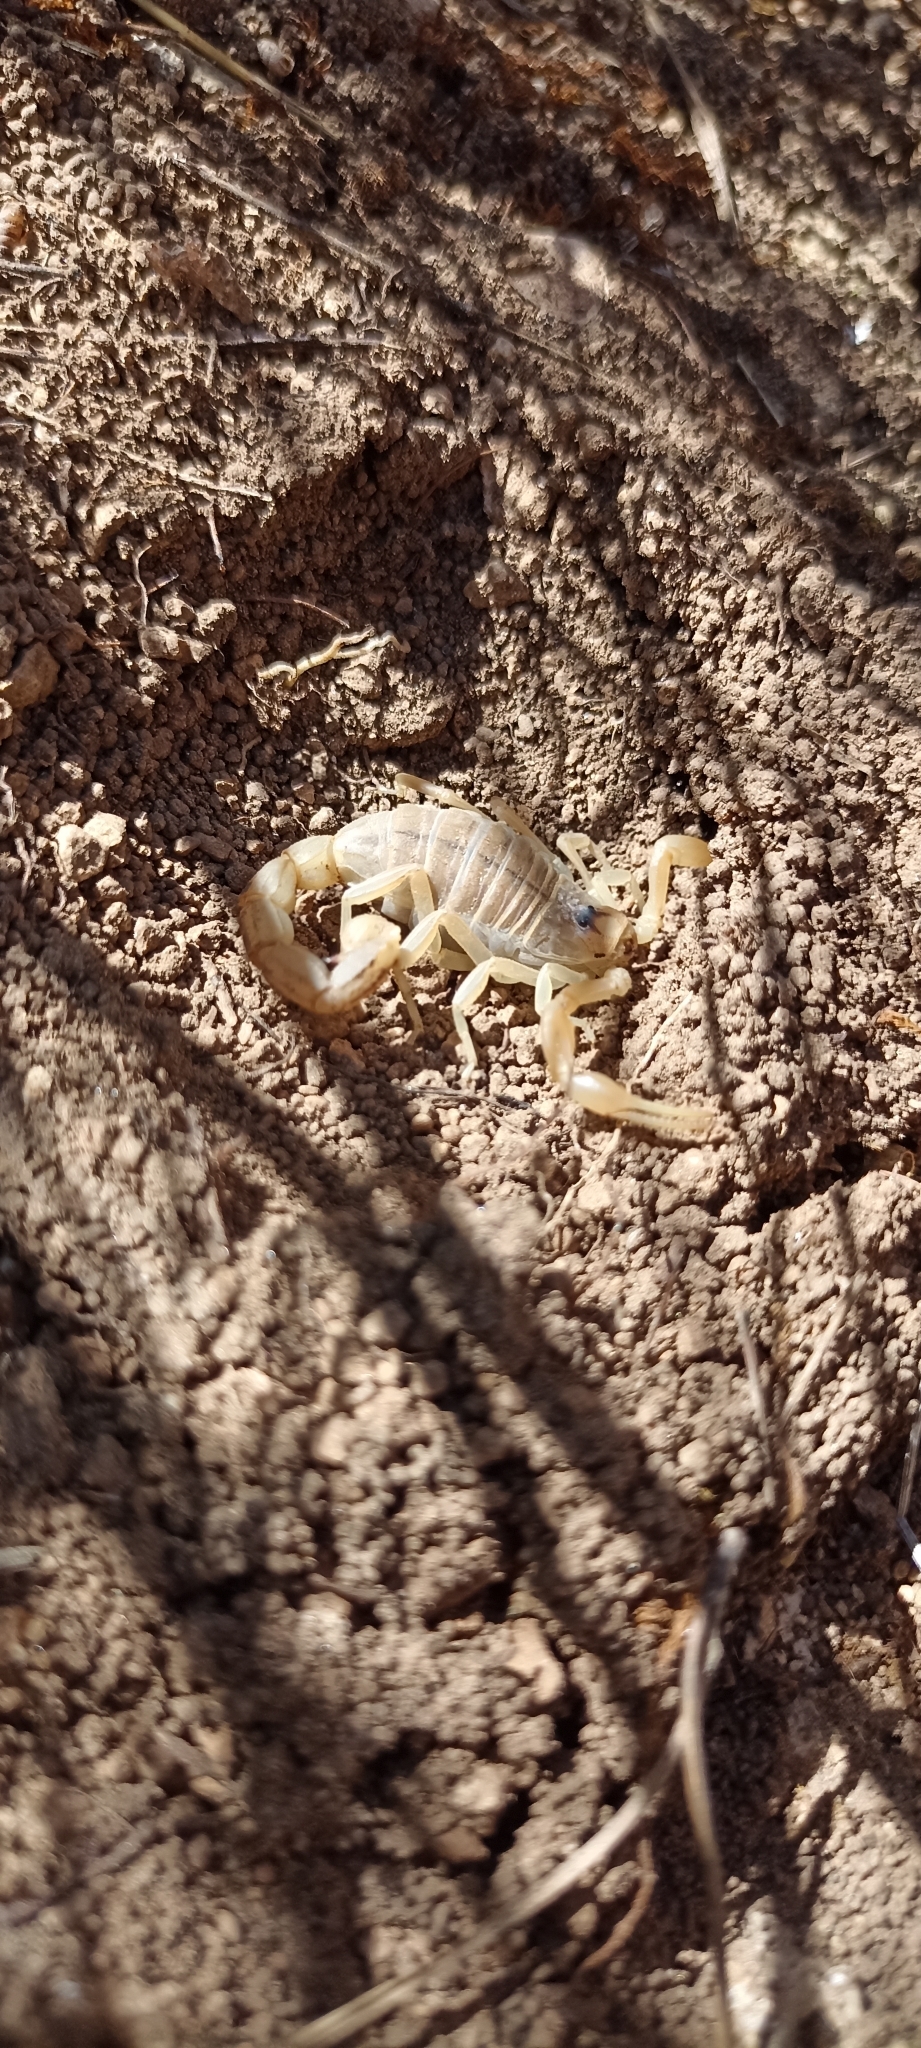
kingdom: Animalia
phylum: Arthropoda
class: Arachnida
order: Scorpiones
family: Buthidae
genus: Buthus
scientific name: Buthus occitanus
